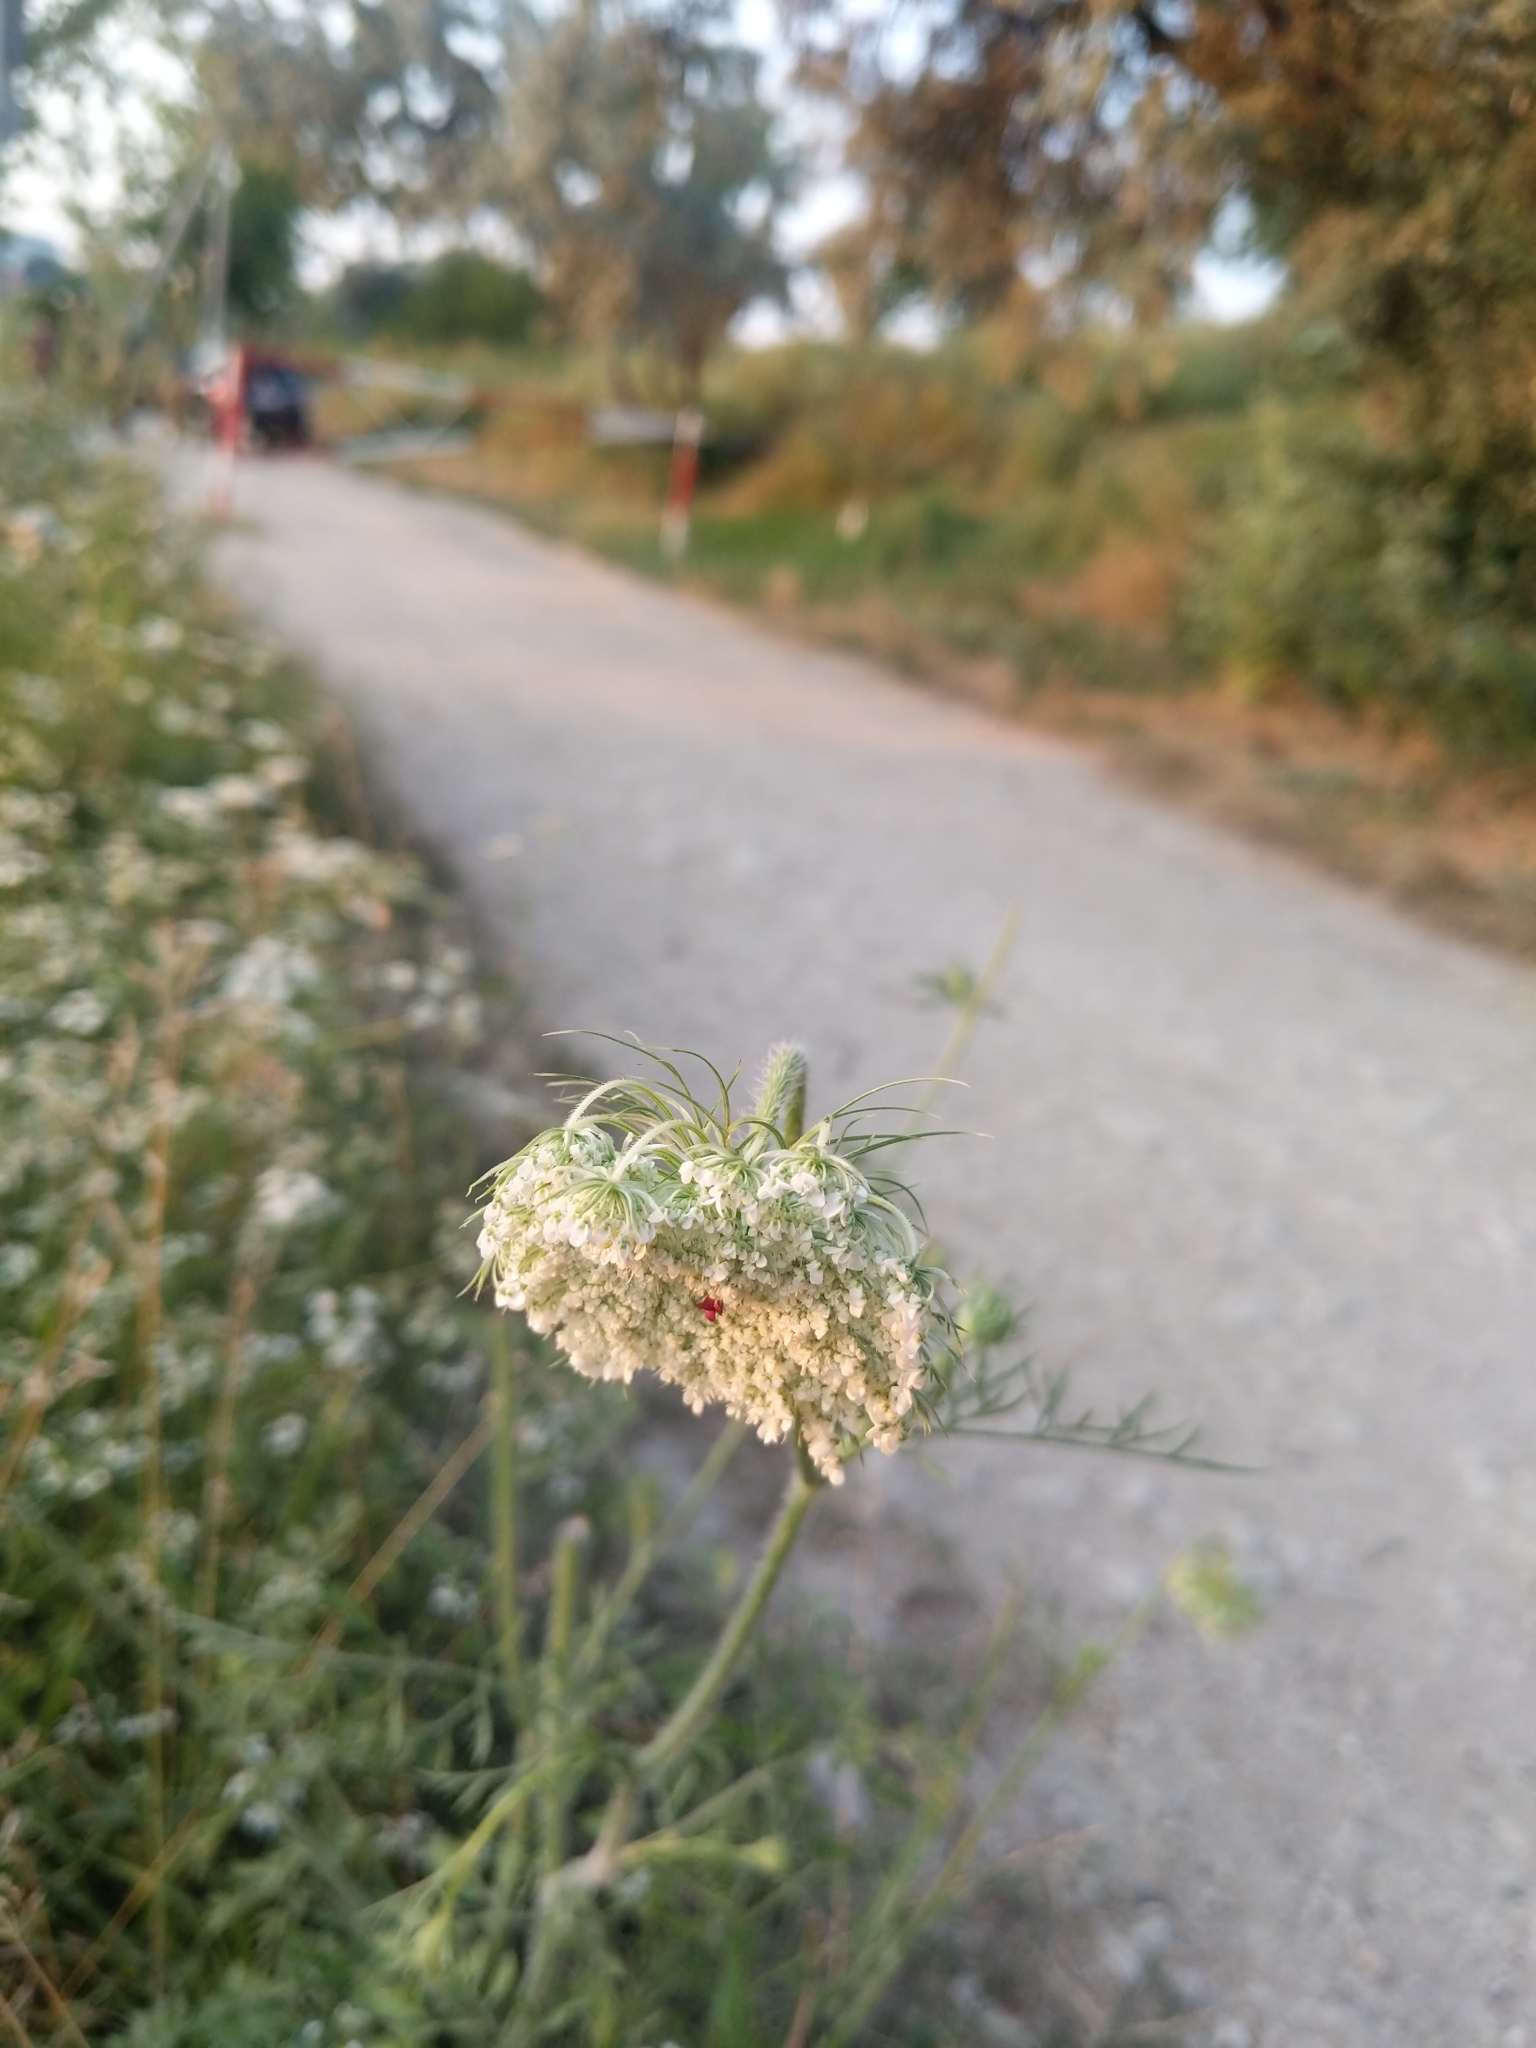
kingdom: Plantae
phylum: Tracheophyta
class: Magnoliopsida
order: Apiales
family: Apiaceae
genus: Daucus
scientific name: Daucus carota
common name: Wild carrot
